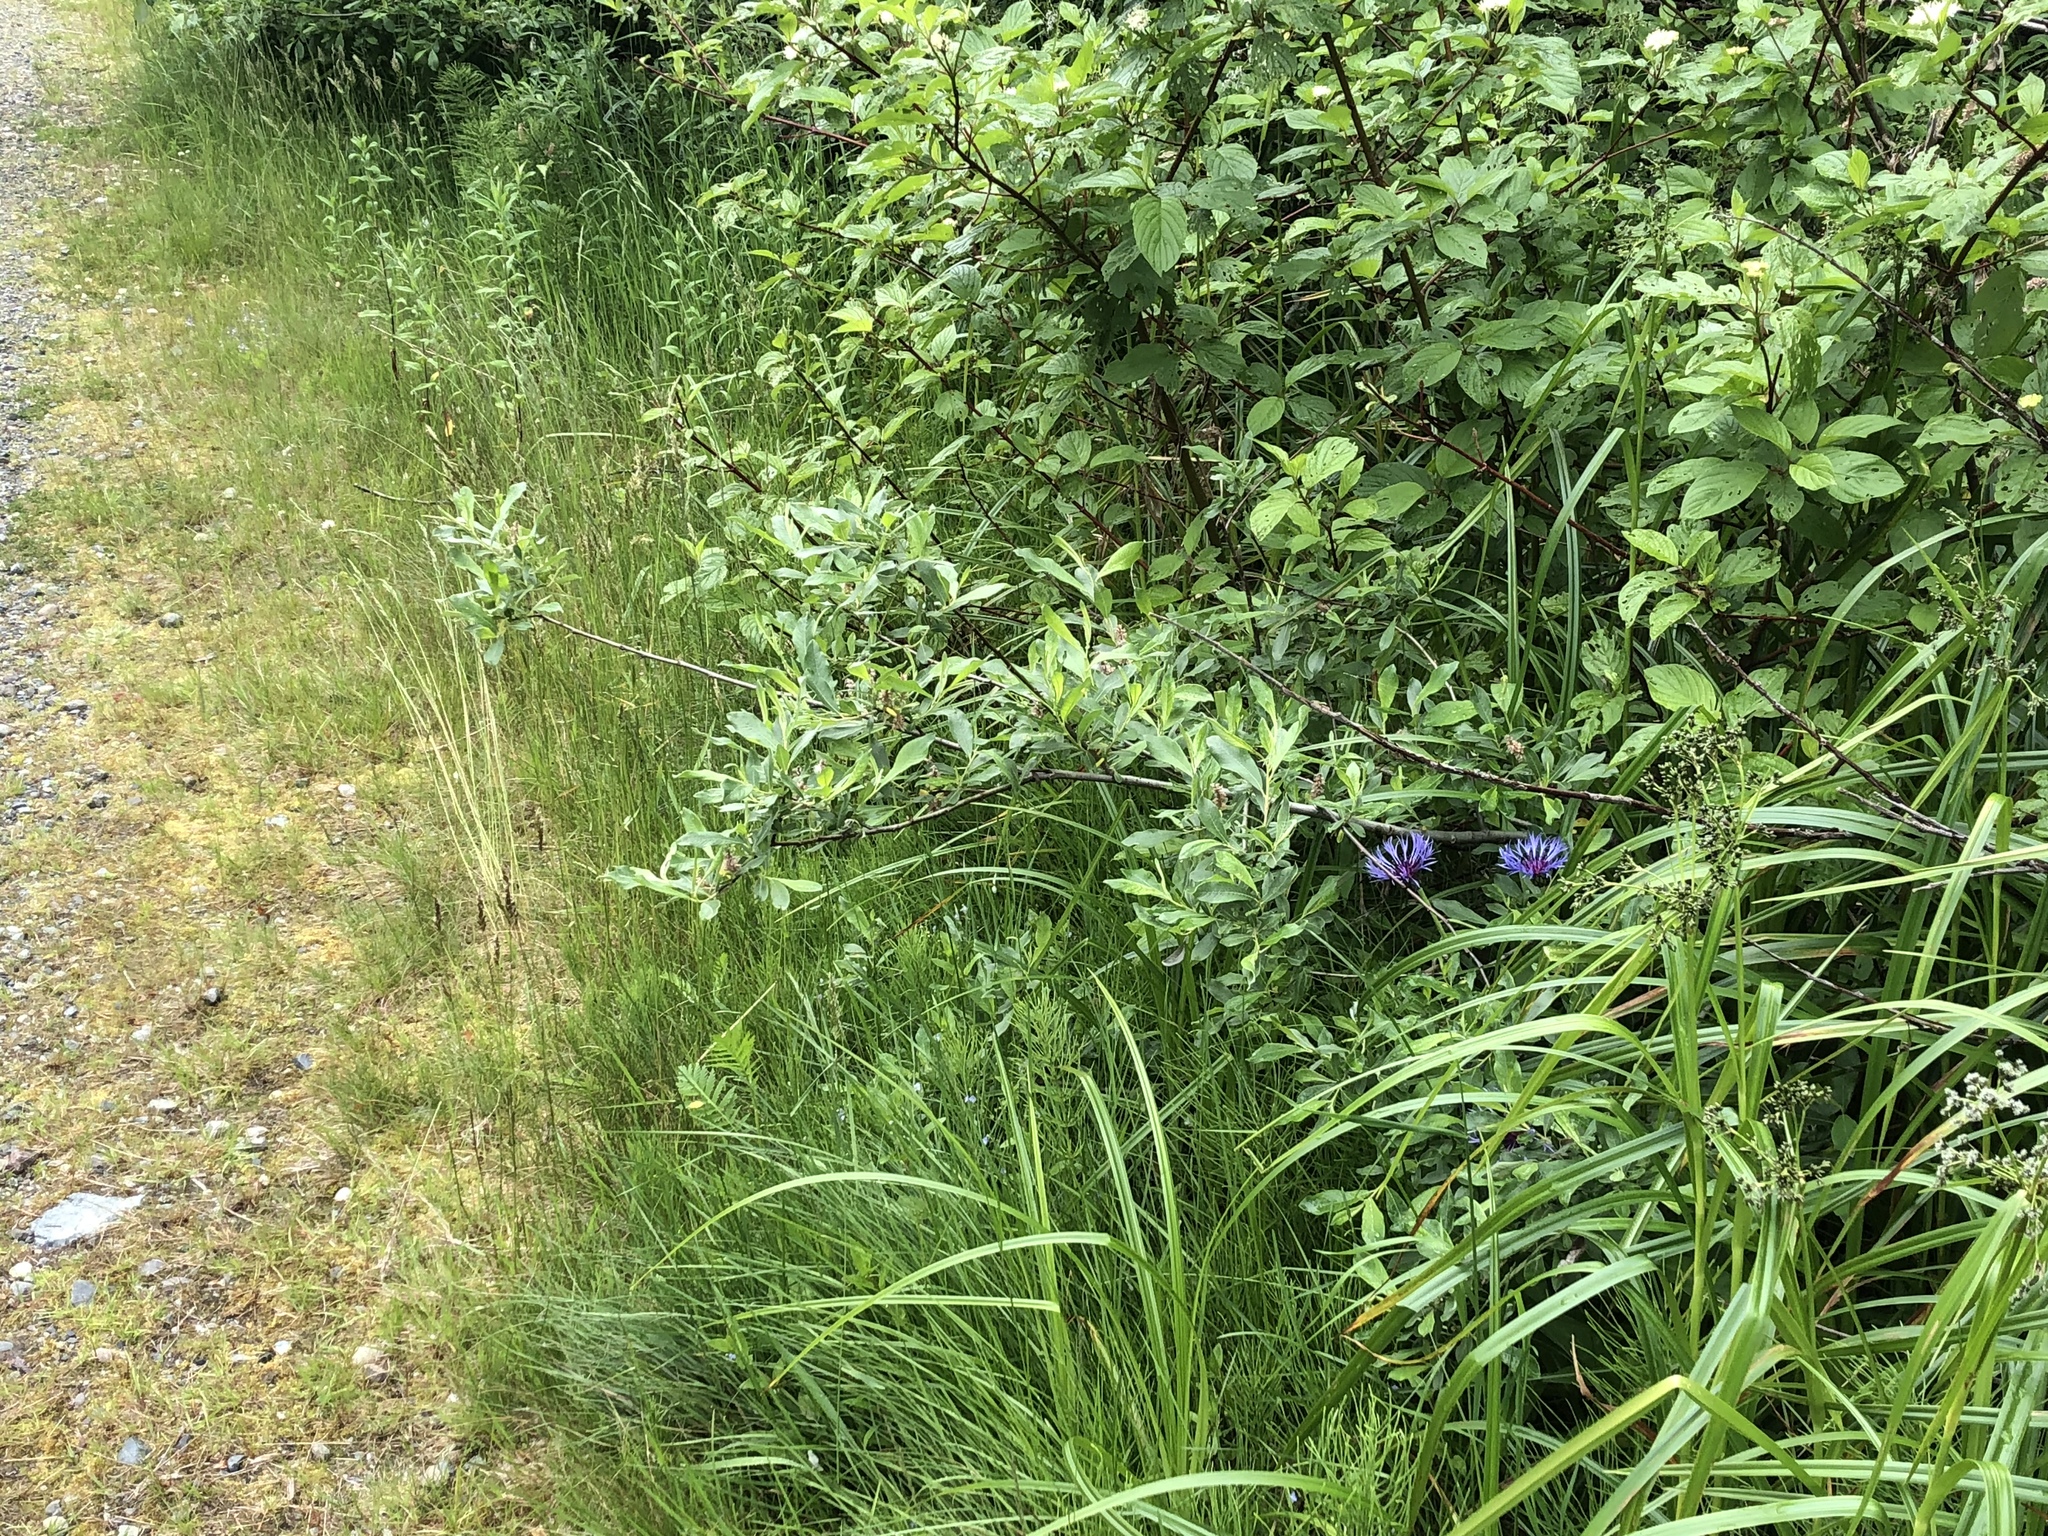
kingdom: Plantae
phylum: Tracheophyta
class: Magnoliopsida
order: Asterales
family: Asteraceae
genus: Centaurea
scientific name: Centaurea montana
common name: Perennial cornflower
